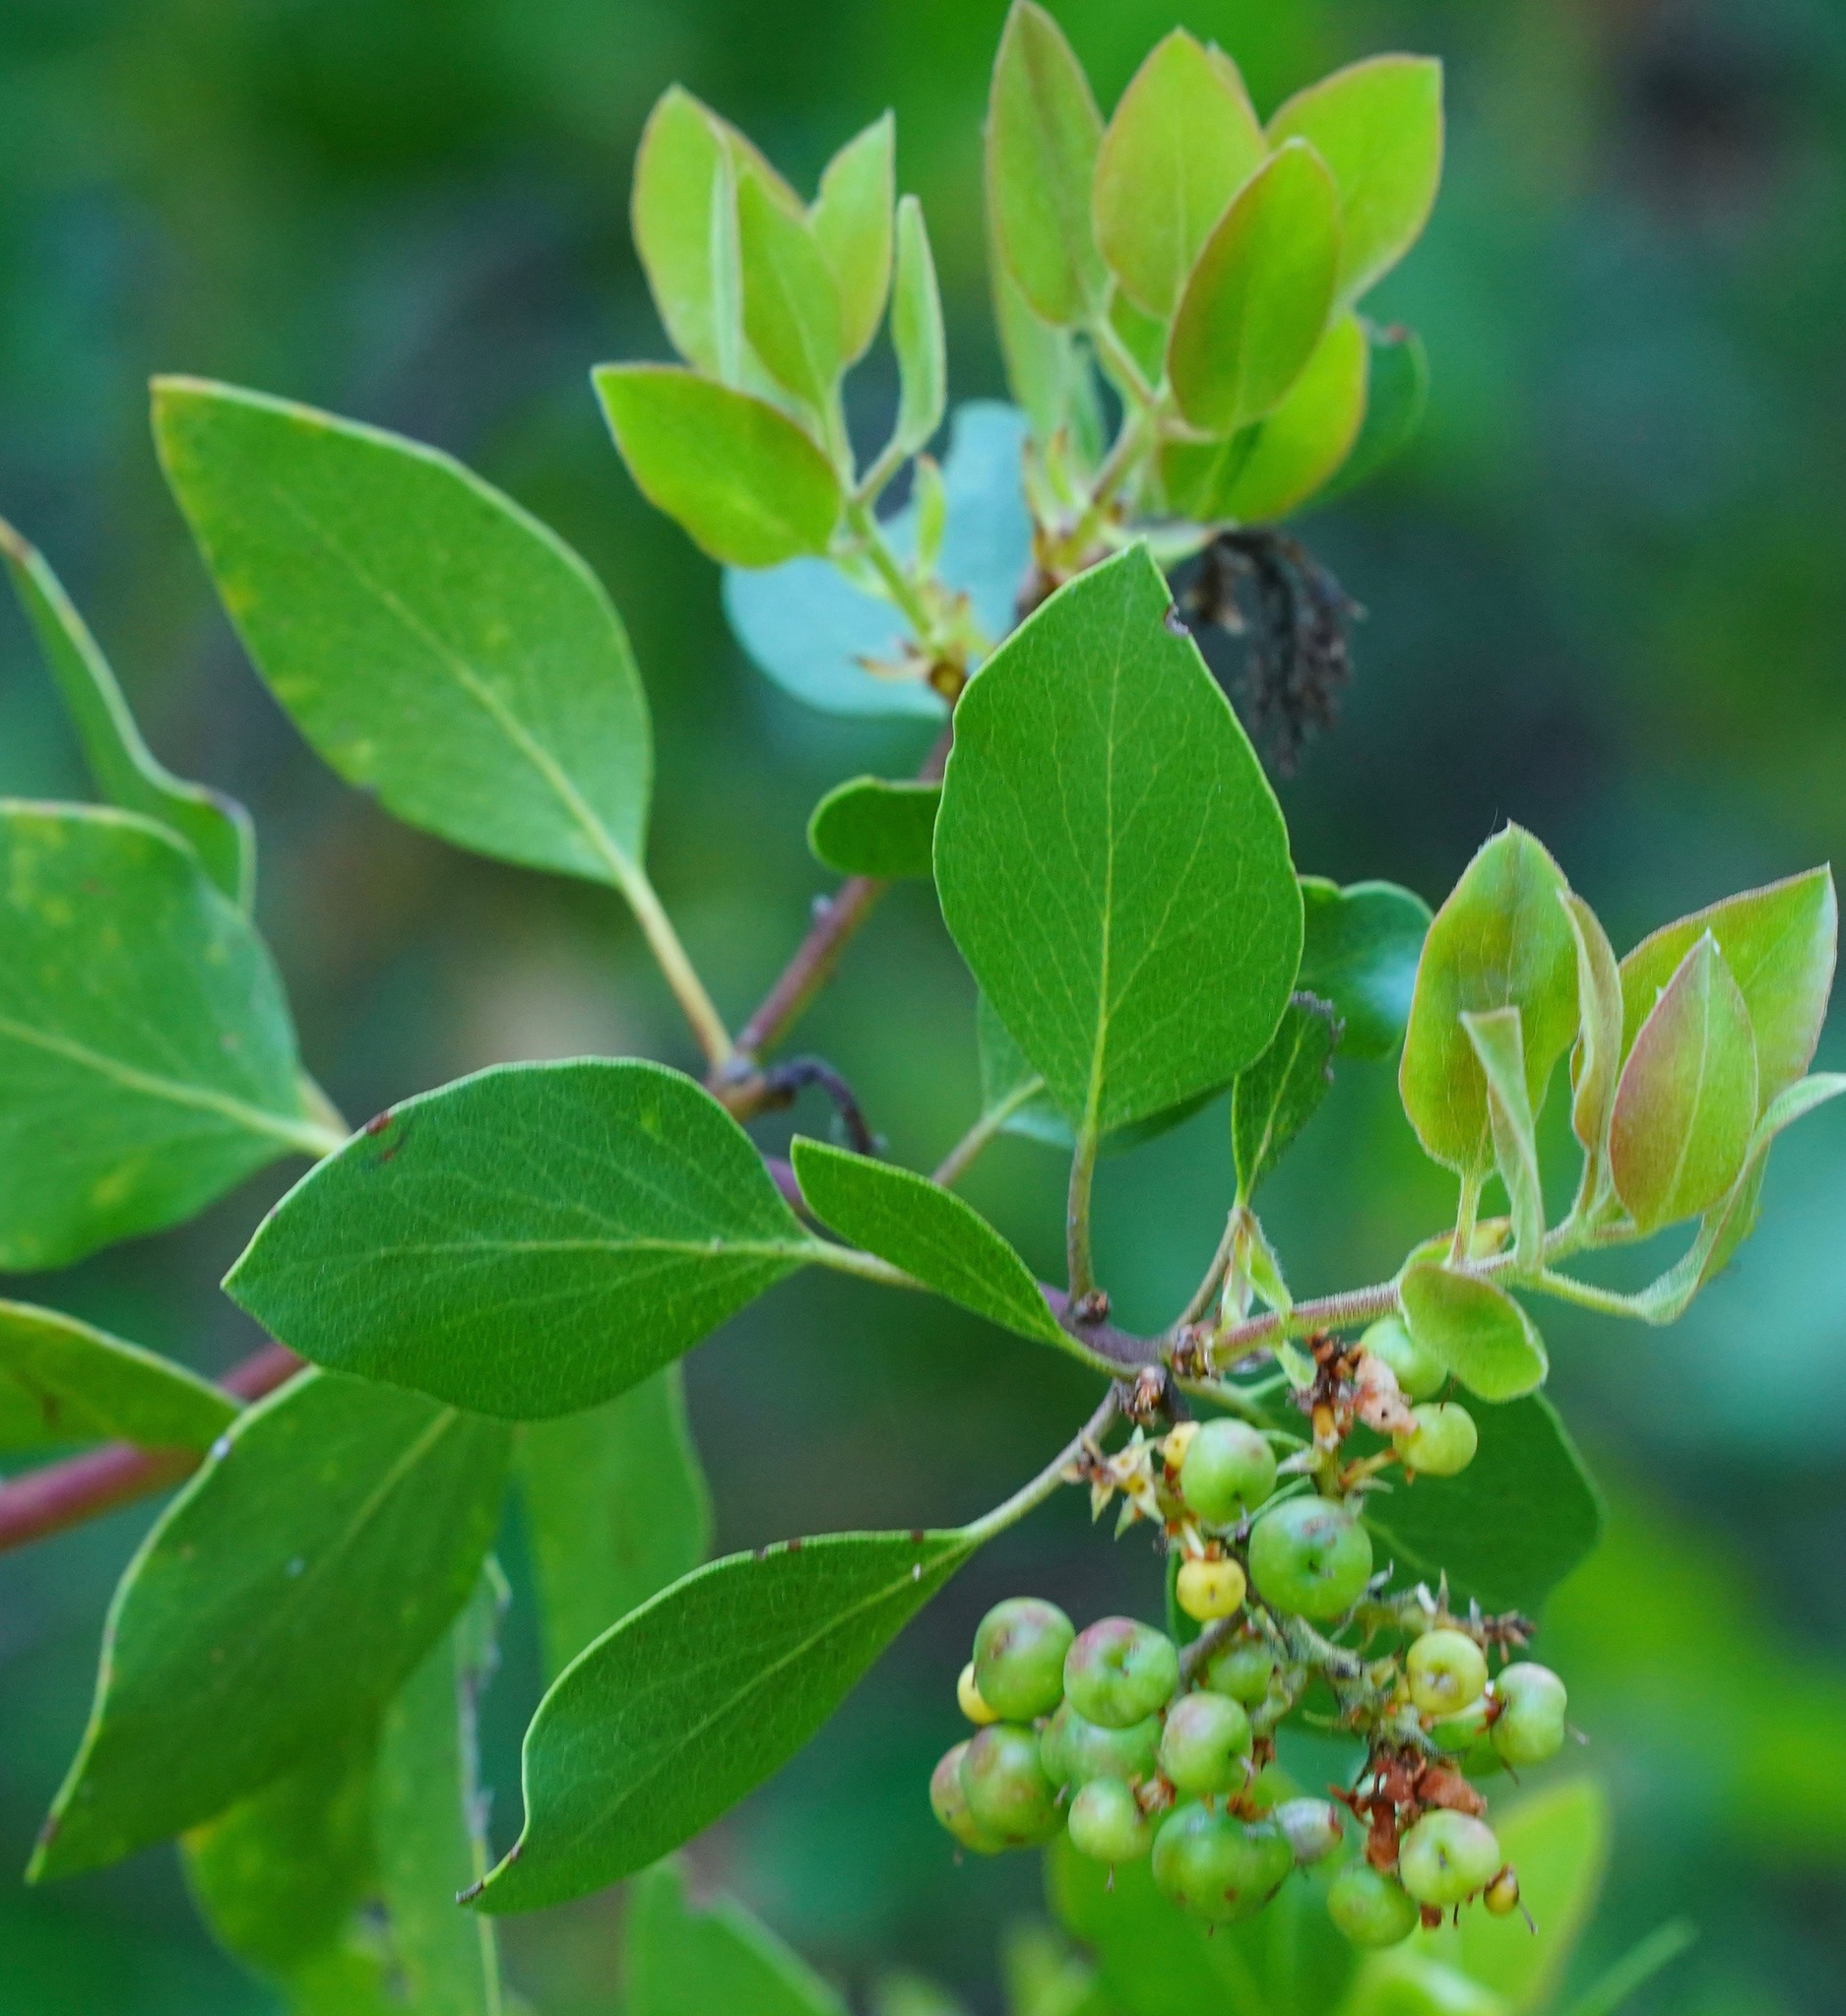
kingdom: Plantae
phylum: Tracheophyta
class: Magnoliopsida
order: Ericales
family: Ericaceae
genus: Arctostaphylos
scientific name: Arctostaphylos patula
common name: Green-leaf manzanita
